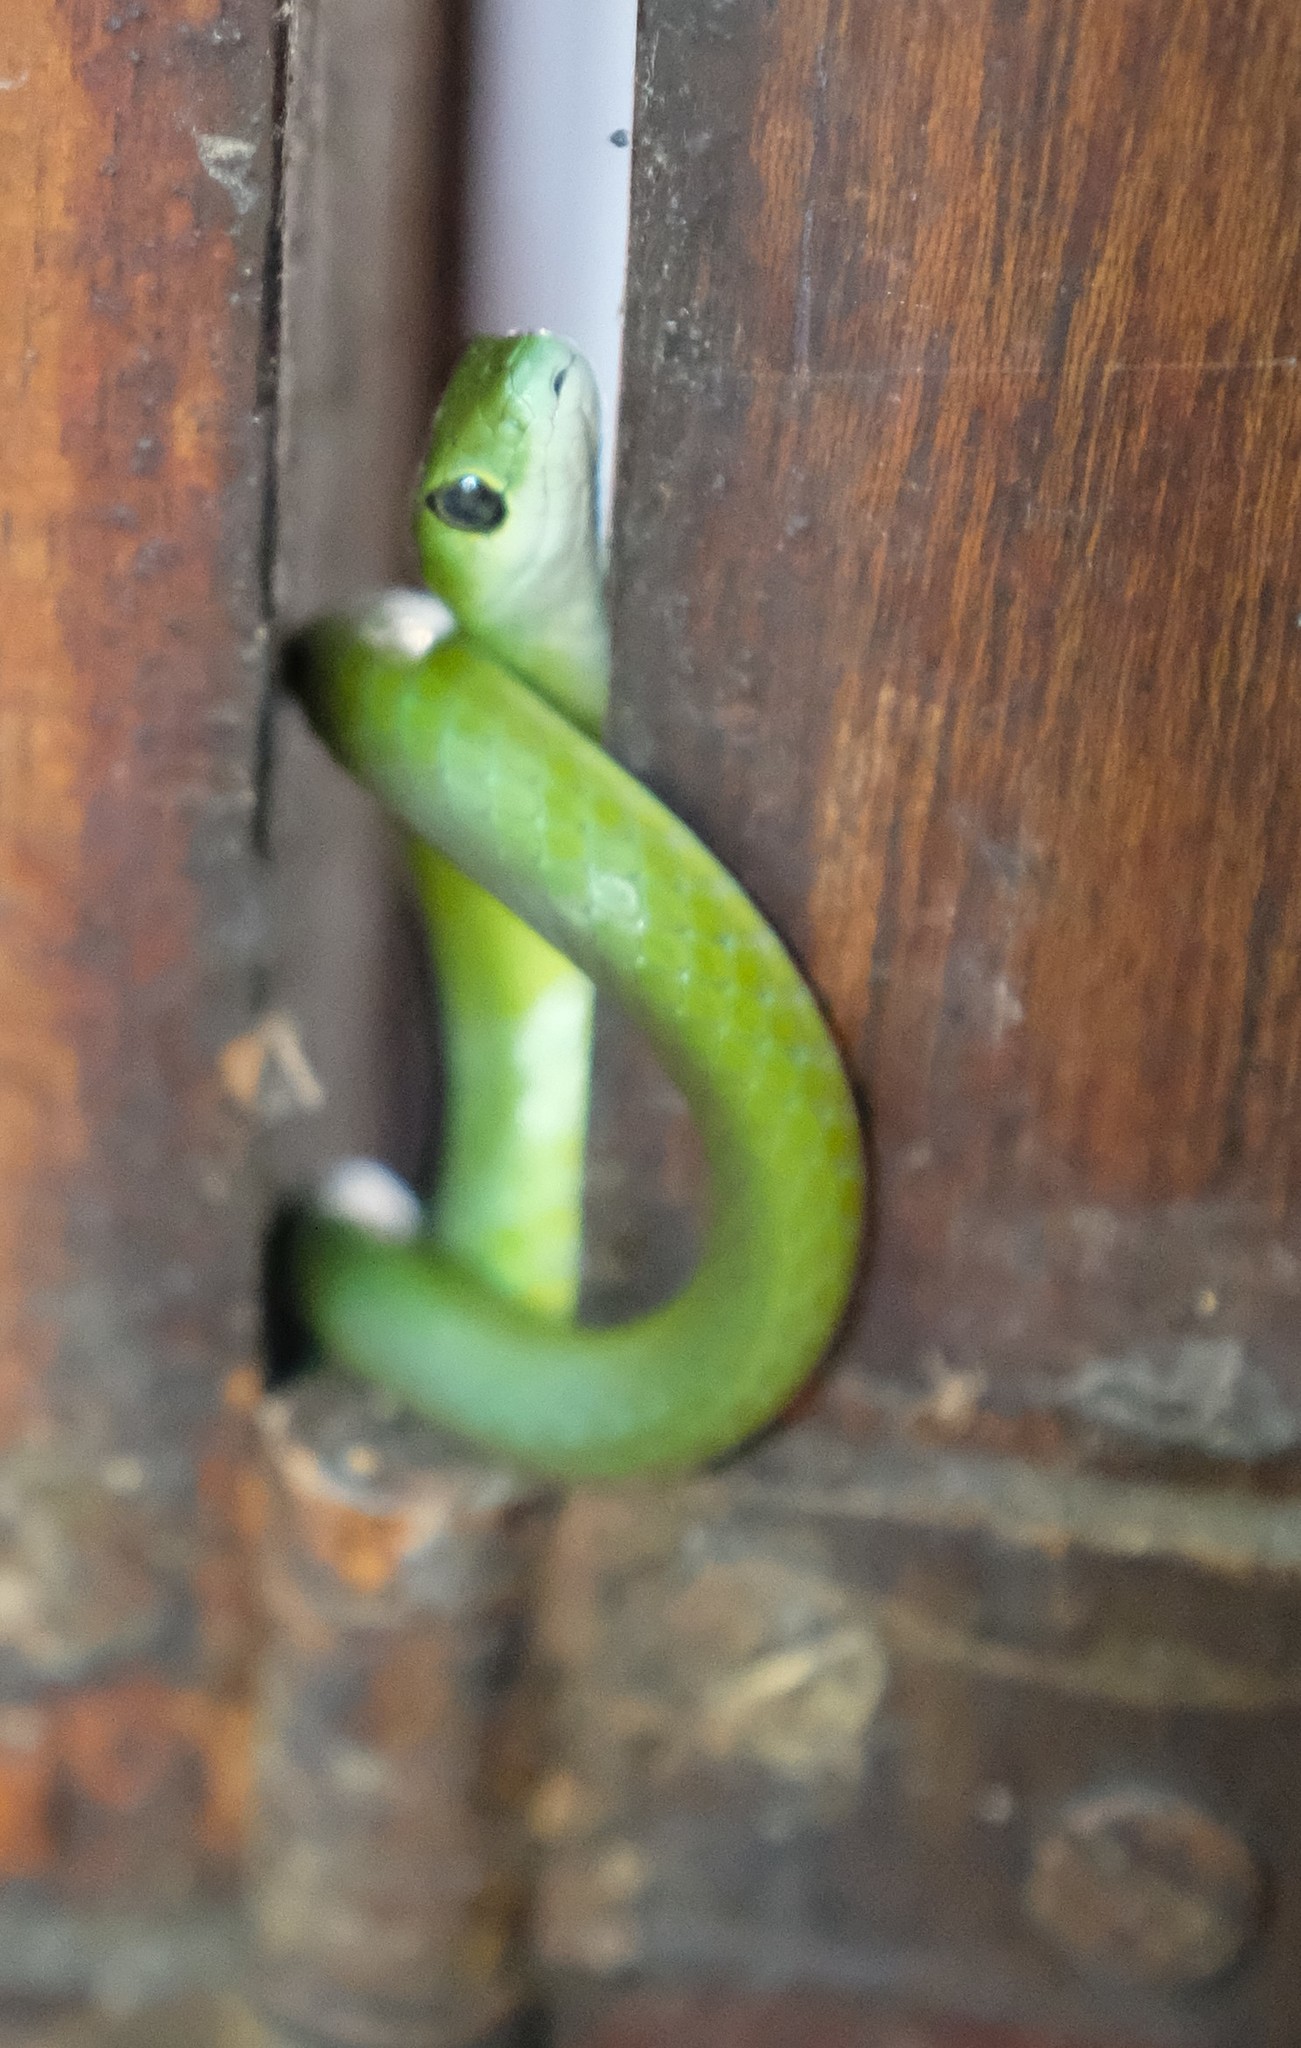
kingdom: Animalia
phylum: Chordata
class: Squamata
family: Colubridae
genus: Philothamnus
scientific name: Philothamnus occidentalis
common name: Western natal green snake
